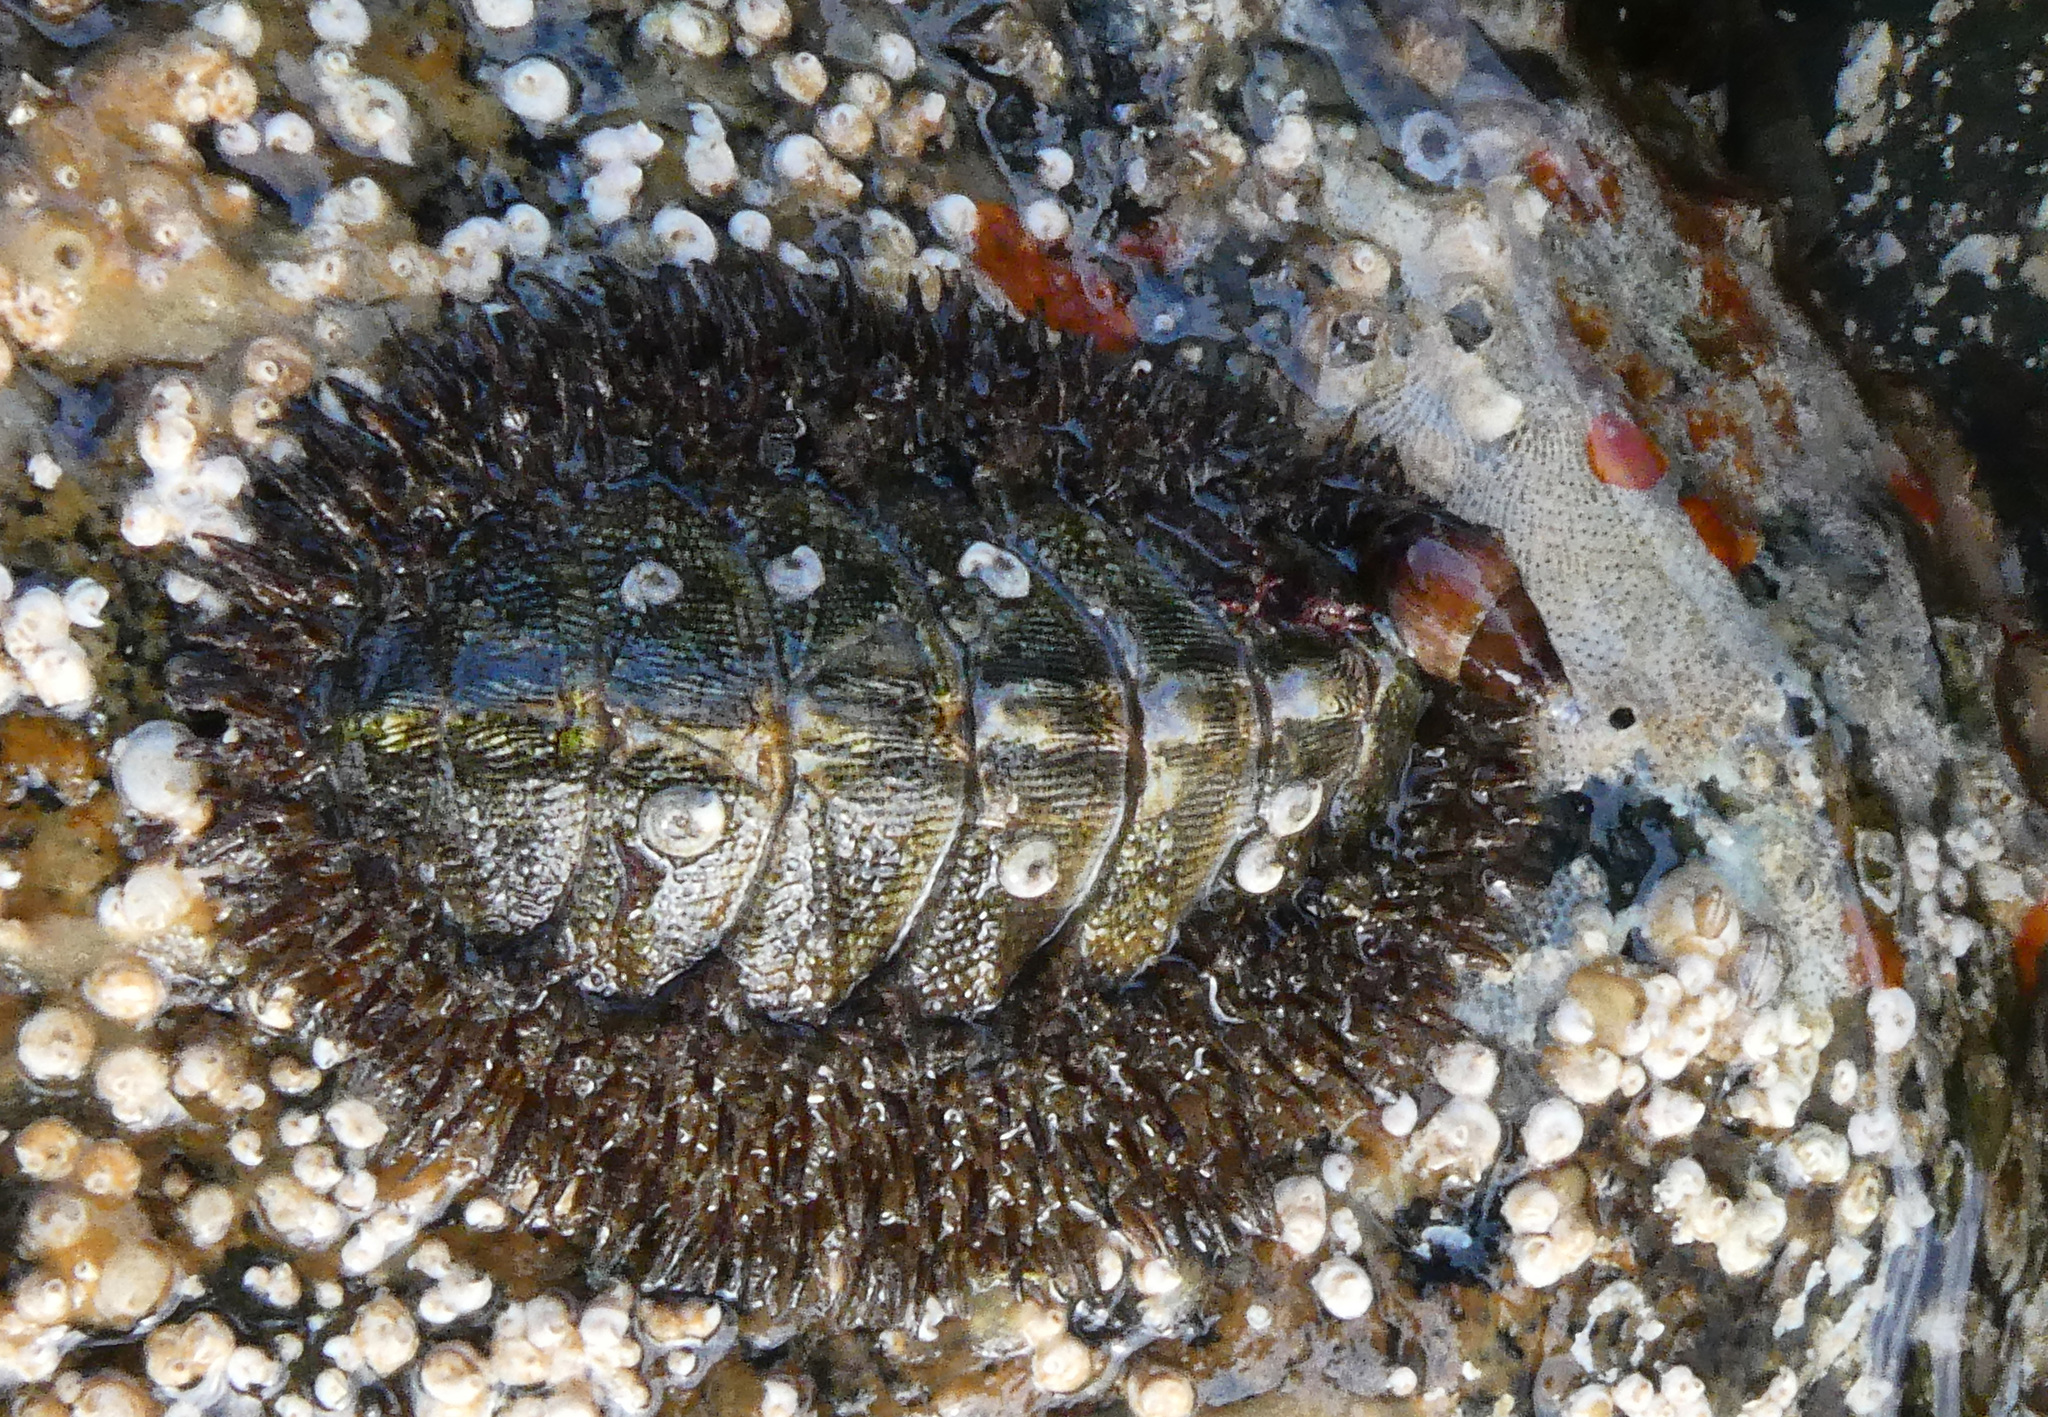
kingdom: Animalia
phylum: Mollusca
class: Polyplacophora
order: Chitonida
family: Mopaliidae
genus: Mopalia
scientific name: Mopalia muscosa
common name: Mossy chiton
